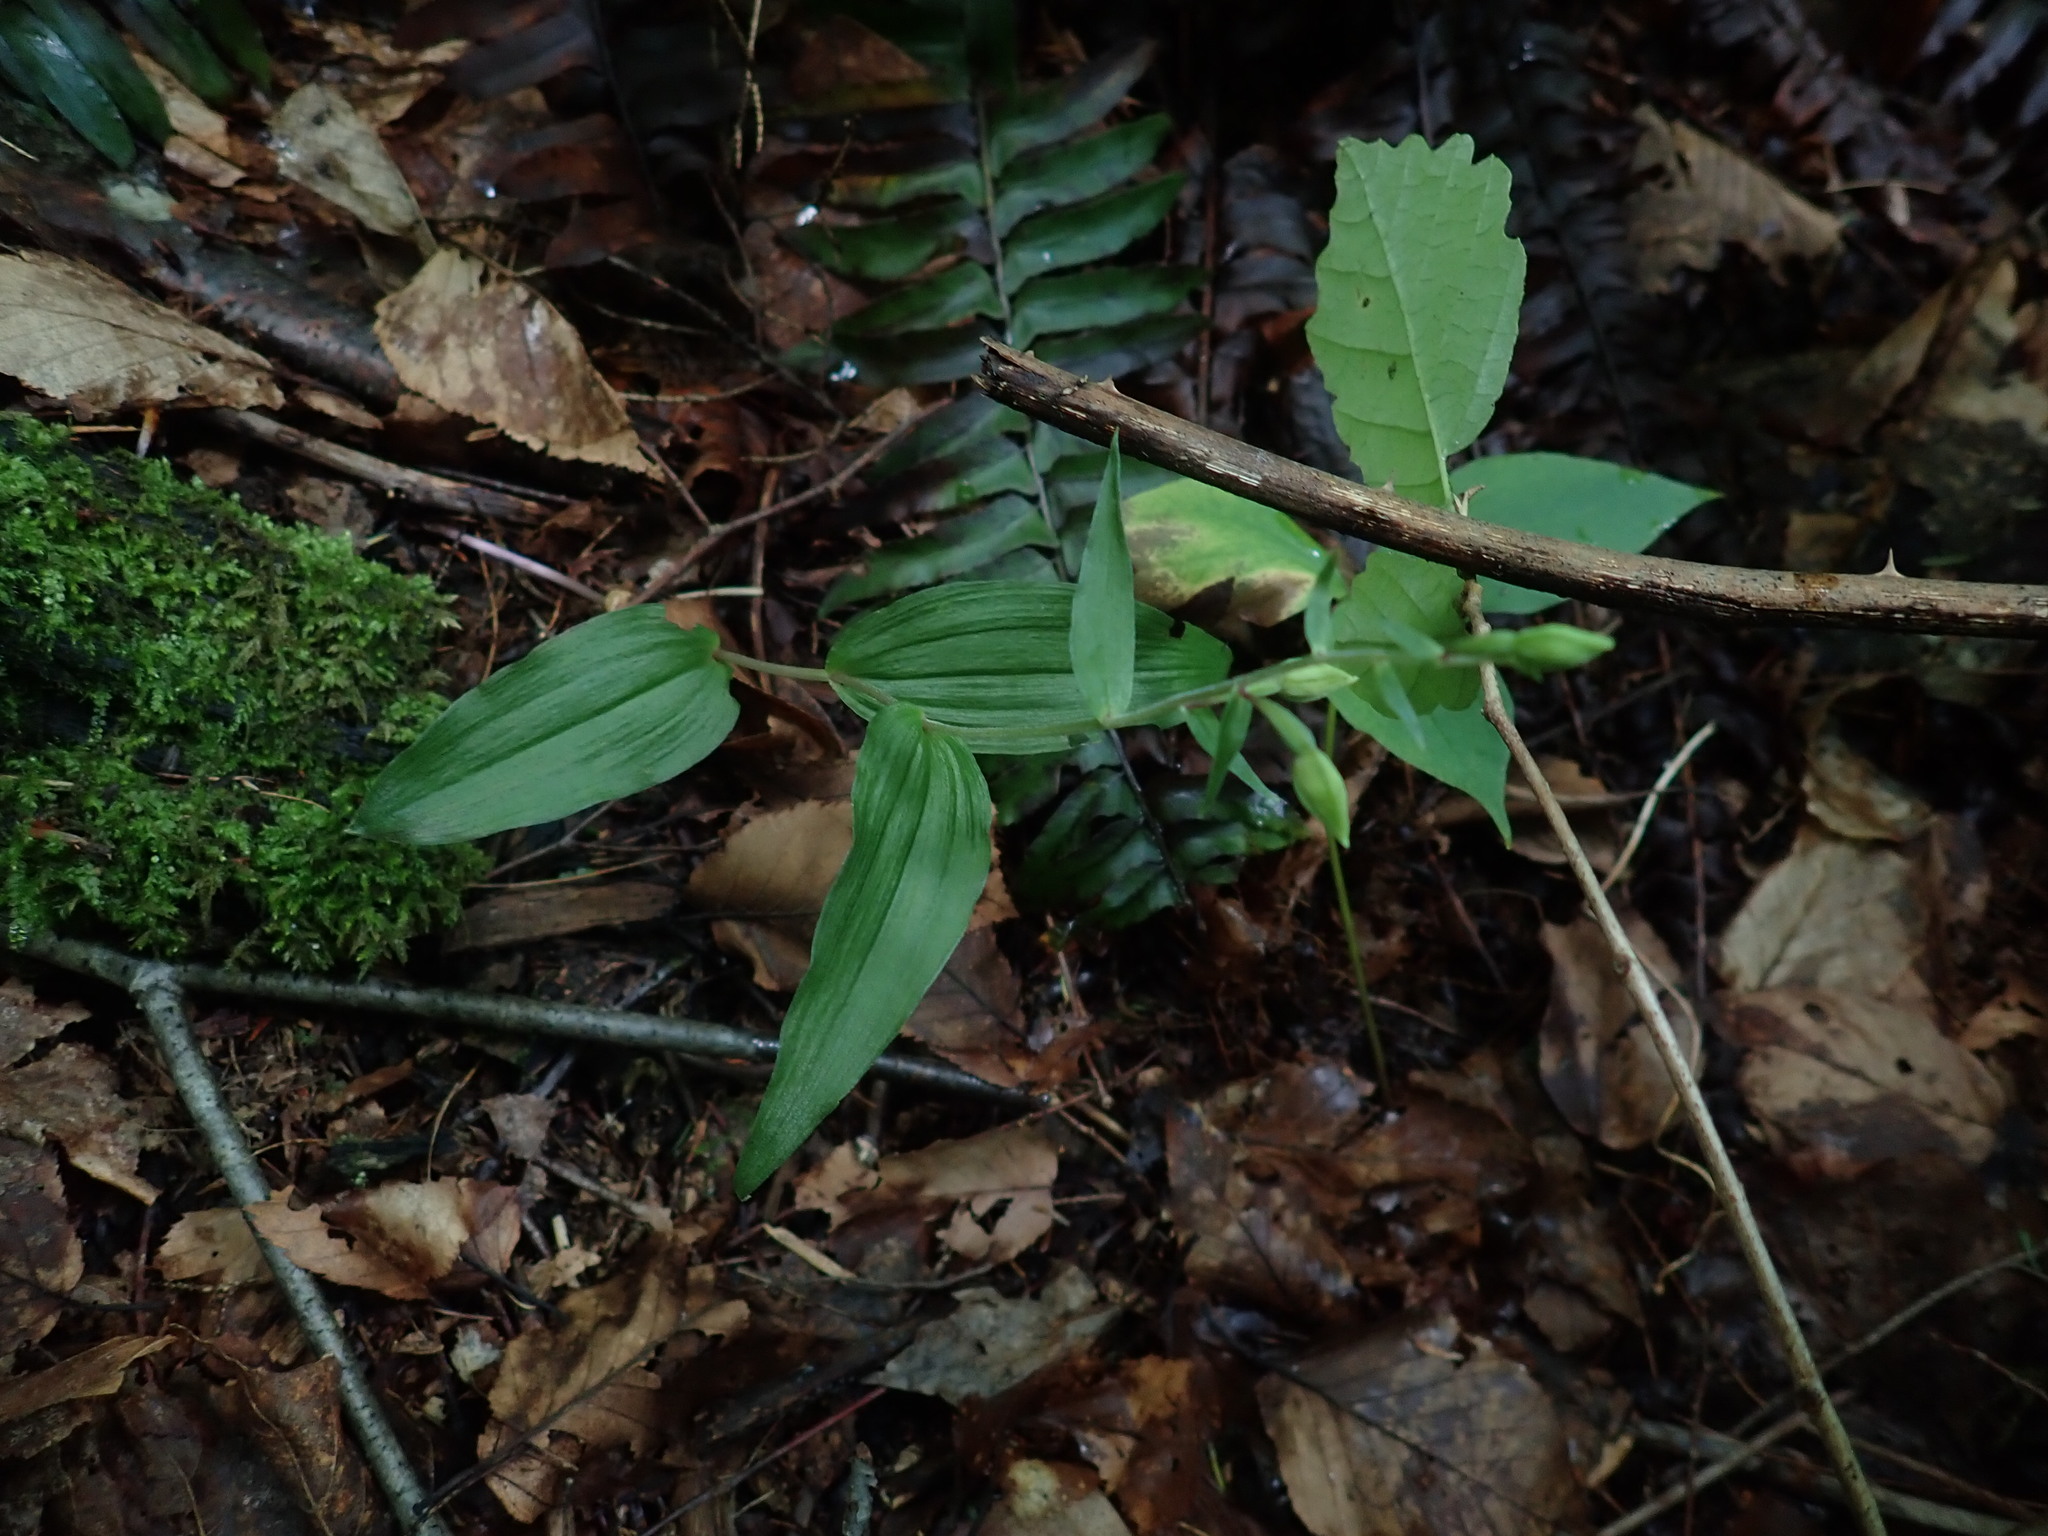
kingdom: Plantae
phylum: Tracheophyta
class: Liliopsida
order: Asparagales
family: Orchidaceae
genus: Epipactis
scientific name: Epipactis helleborine
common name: Broad-leaved helleborine
